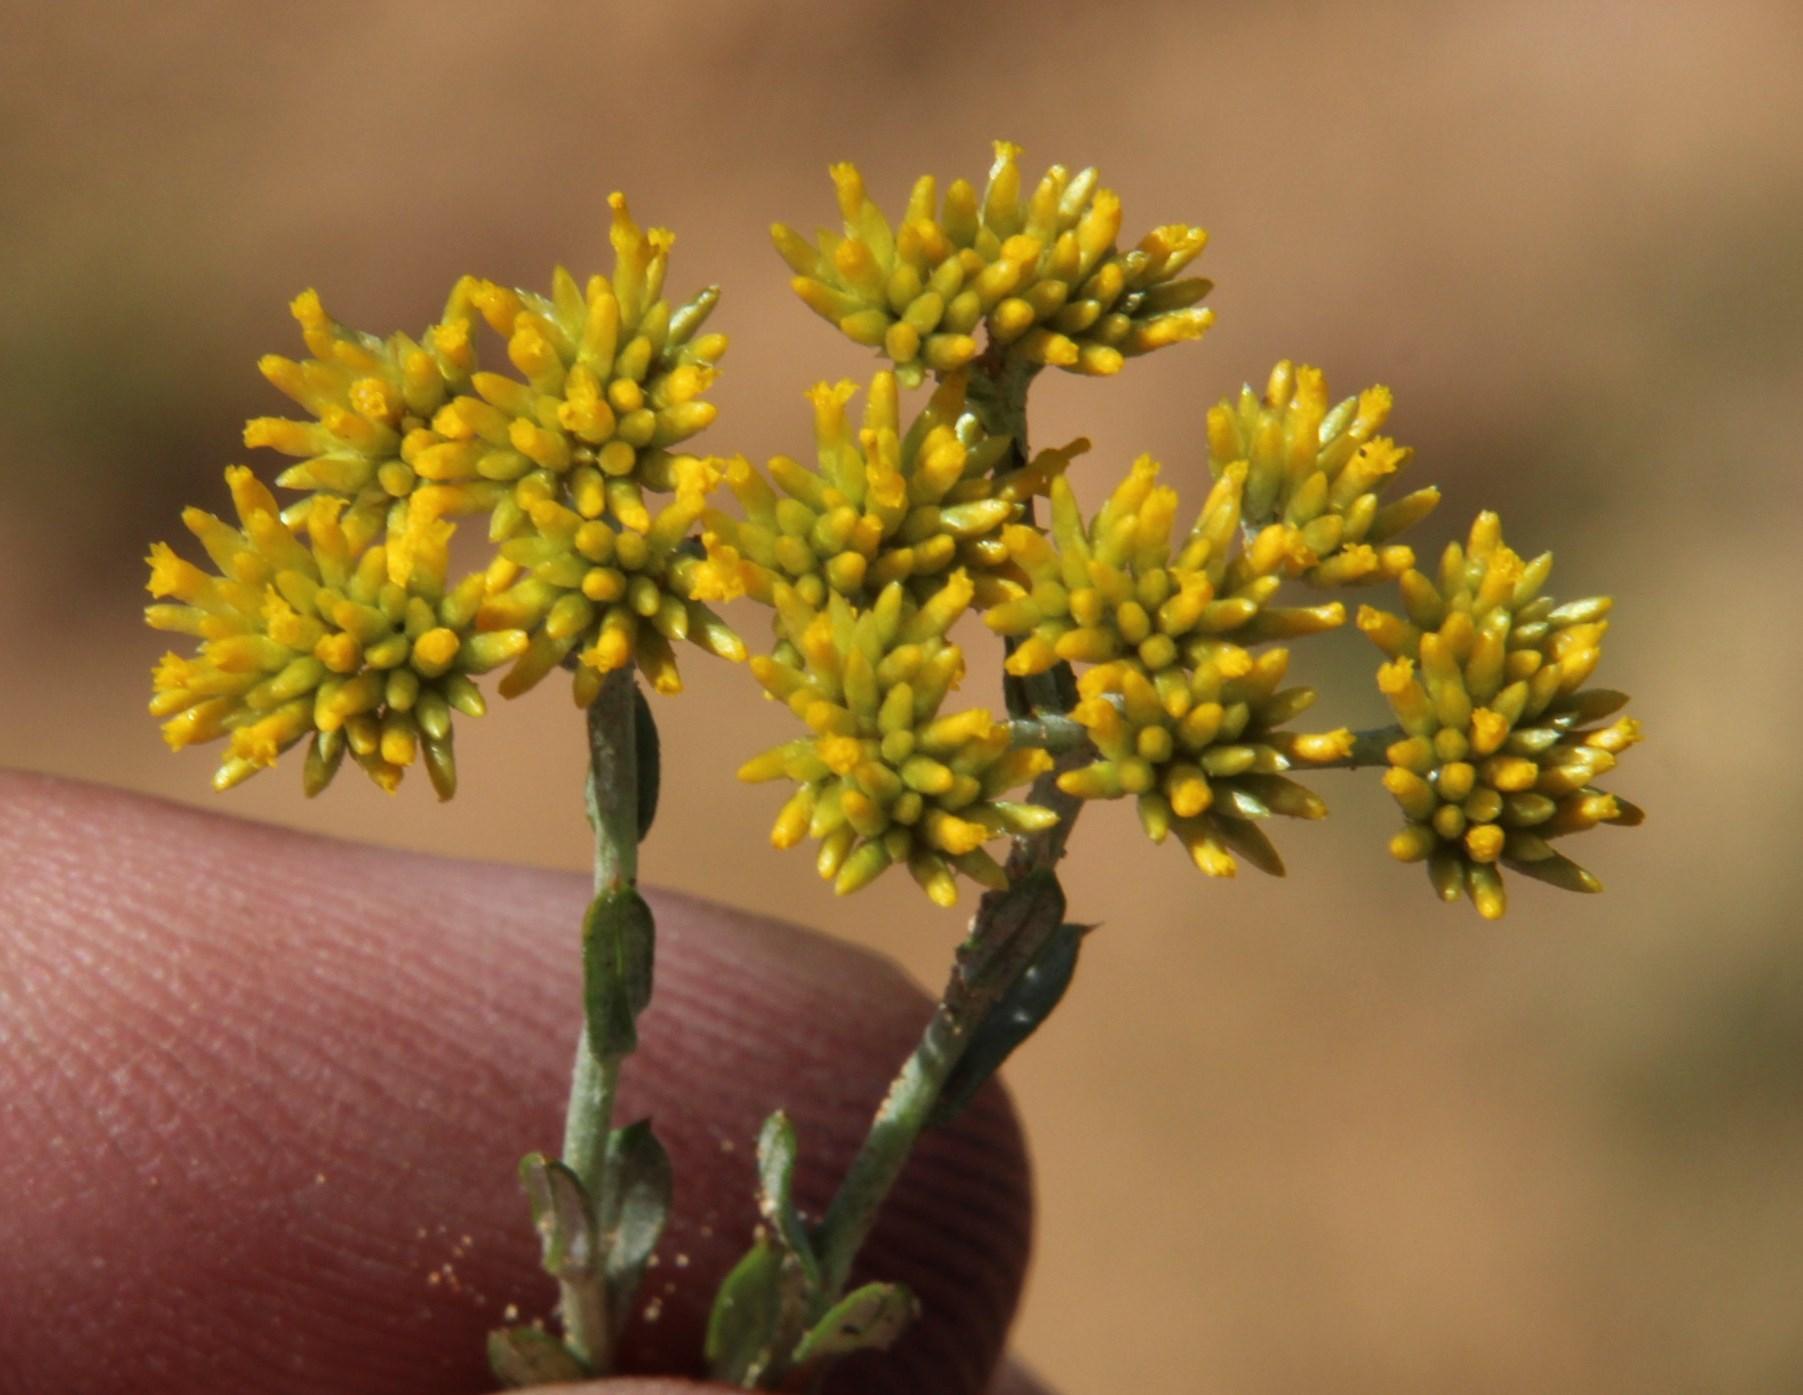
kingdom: Plantae
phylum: Tracheophyta
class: Magnoliopsida
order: Asterales
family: Asteraceae
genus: Helichrysum
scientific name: Helichrysum rutilans
